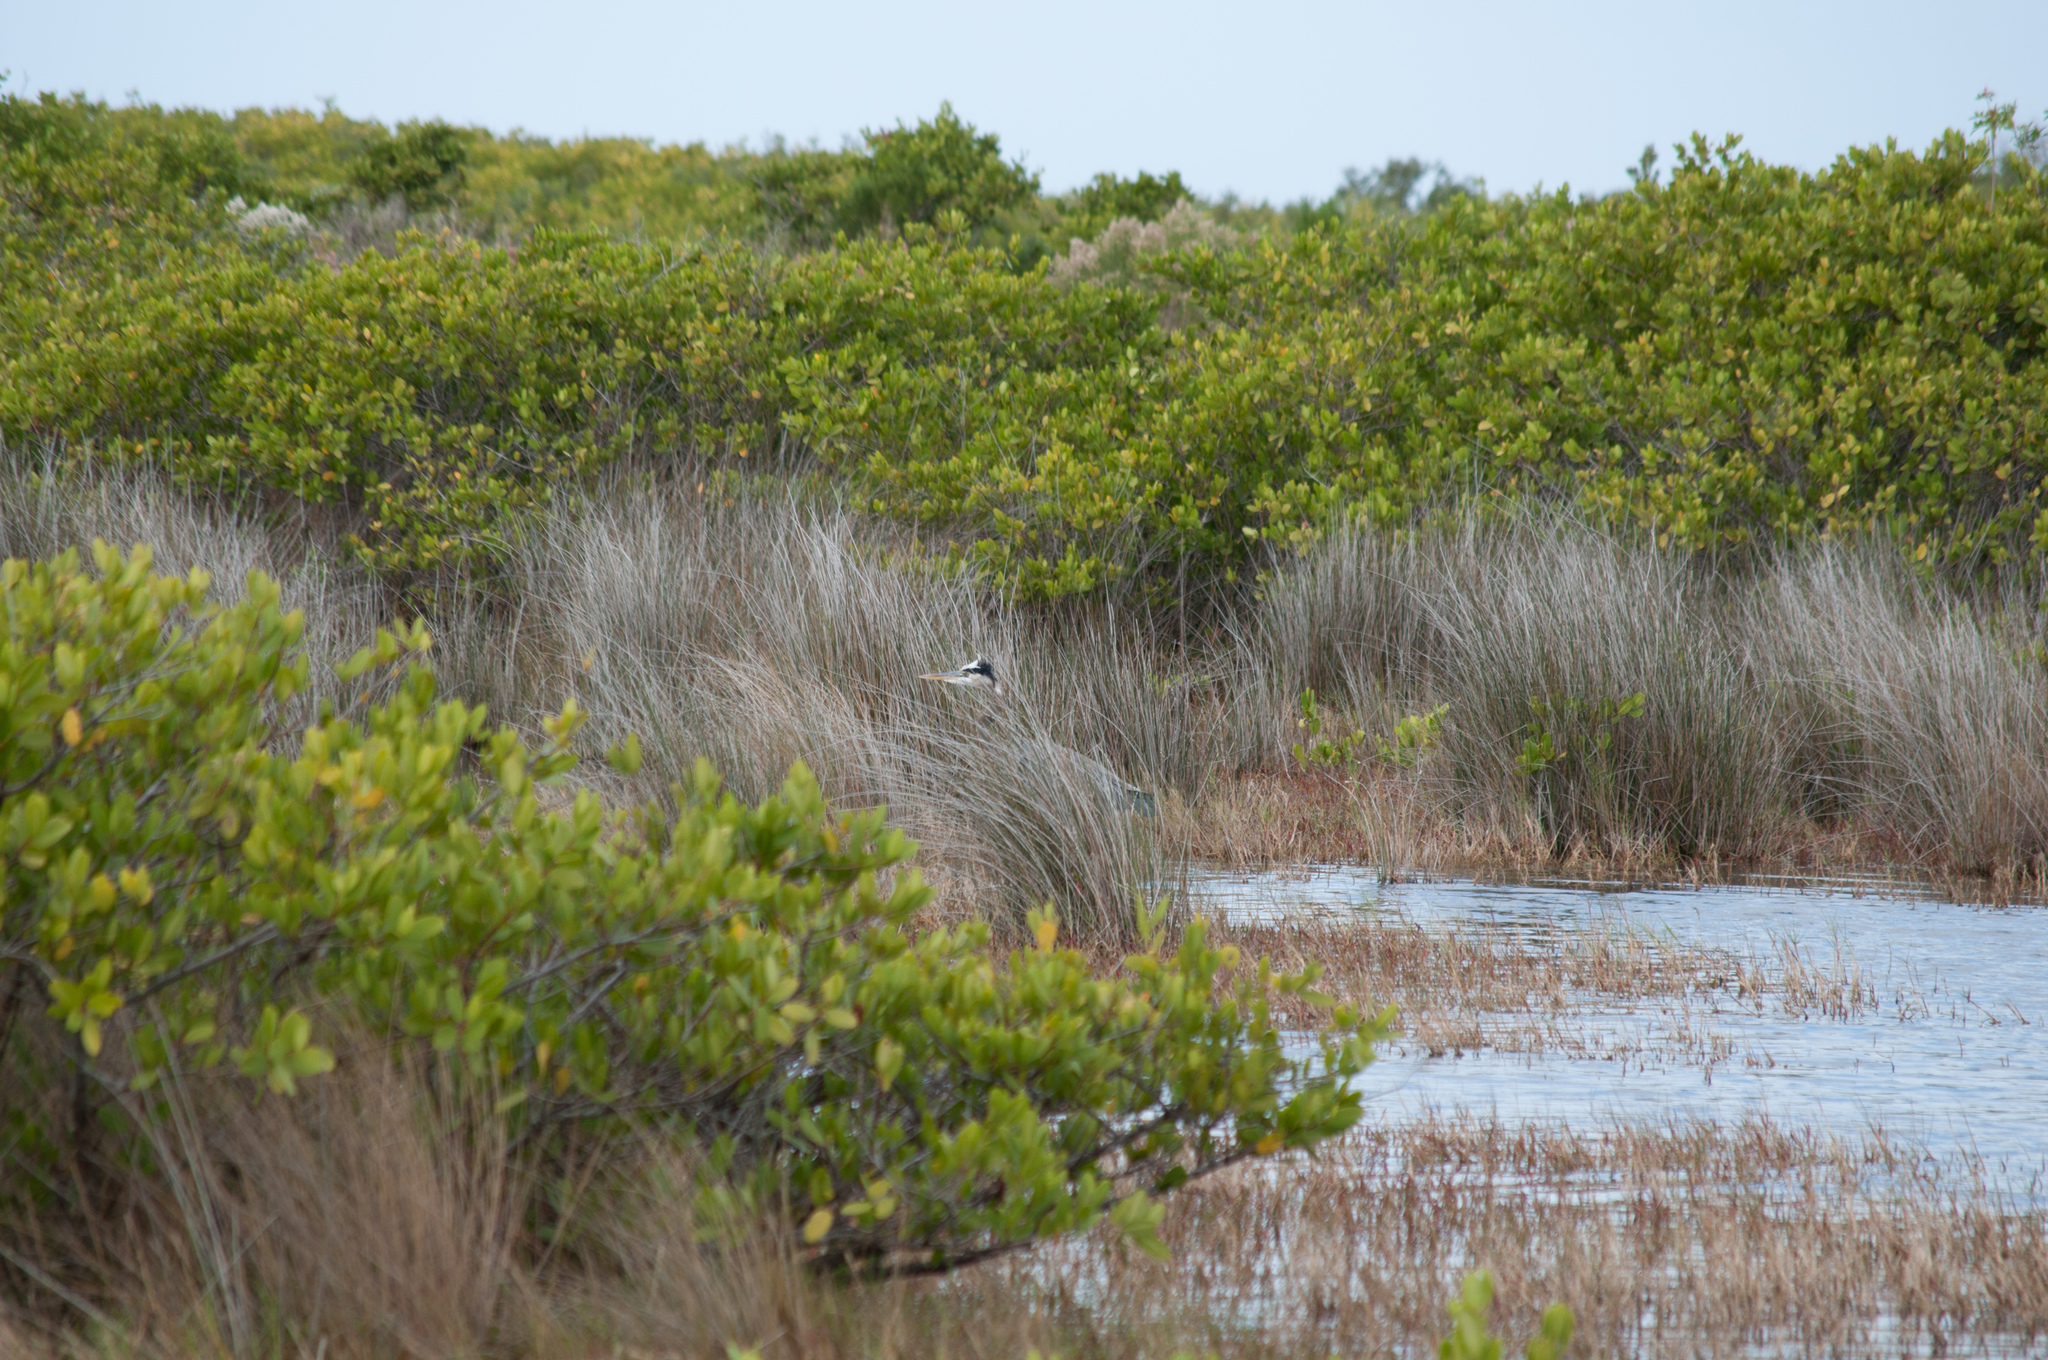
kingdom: Animalia
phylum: Chordata
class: Aves
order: Pelecaniformes
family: Ardeidae
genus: Ardea
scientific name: Ardea herodias
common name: Great blue heron
